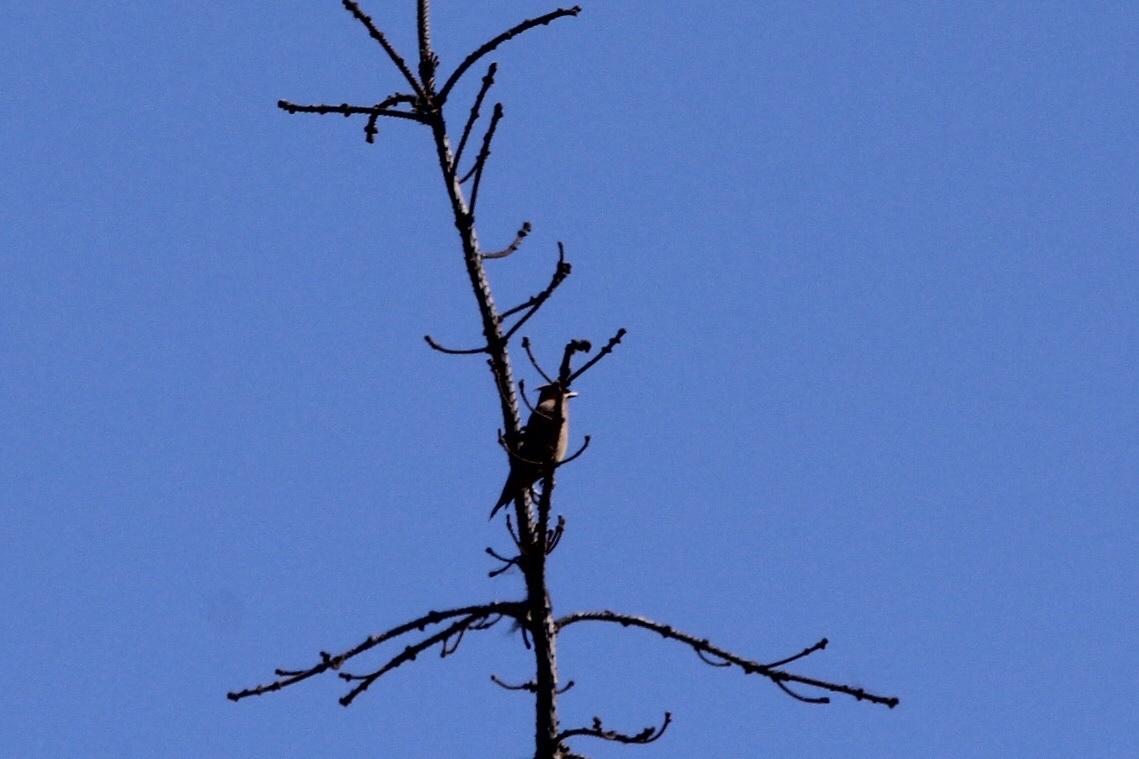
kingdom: Animalia
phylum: Chordata
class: Aves
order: Passeriformes
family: Bombycillidae
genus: Bombycilla
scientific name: Bombycilla cedrorum
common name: Cedar waxwing
